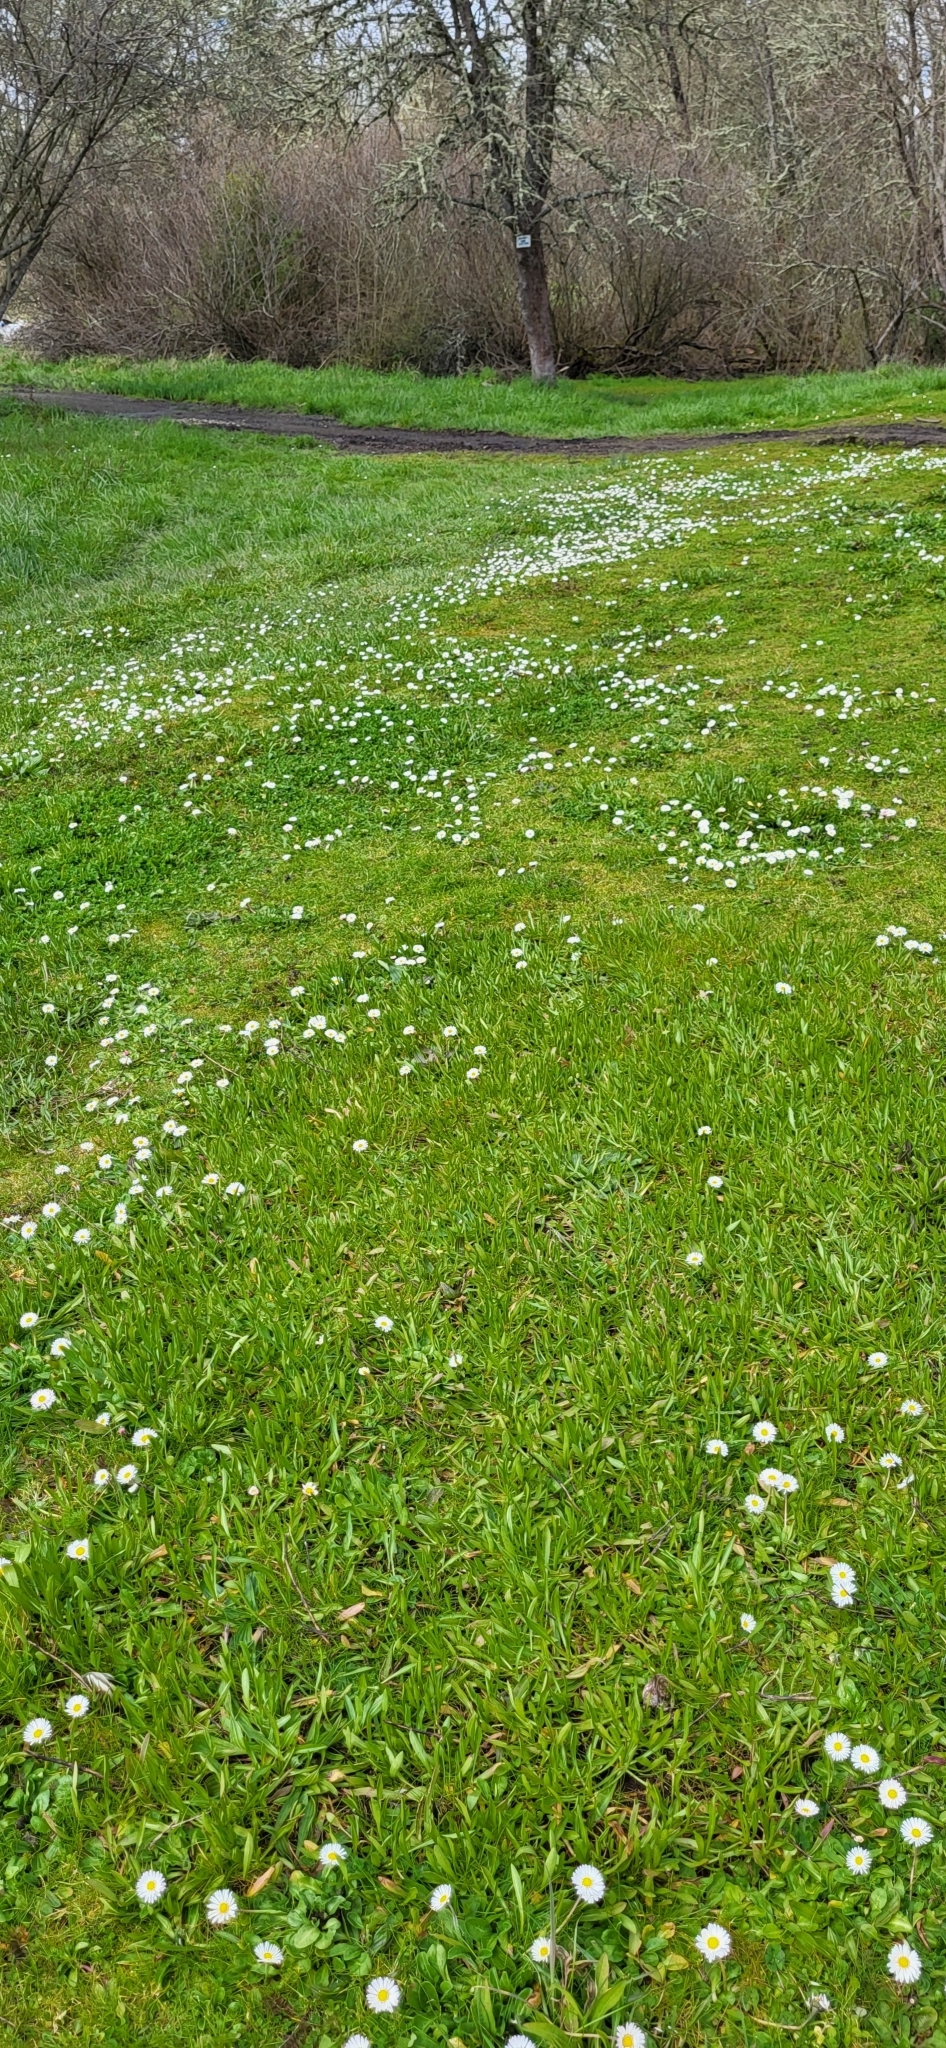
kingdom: Plantae
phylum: Tracheophyta
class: Magnoliopsida
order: Asterales
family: Asteraceae
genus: Bellis
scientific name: Bellis perennis
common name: Lawndaisy
